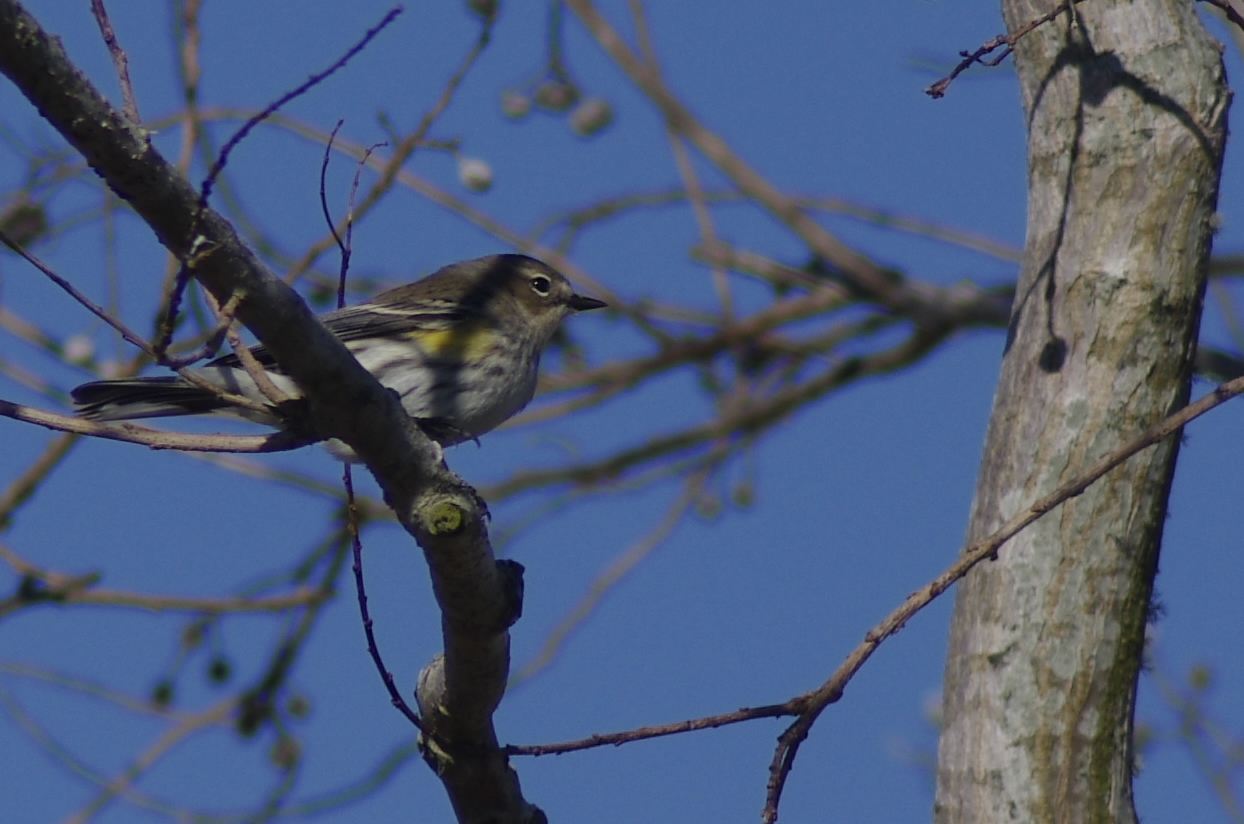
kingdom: Animalia
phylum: Chordata
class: Aves
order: Passeriformes
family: Parulidae
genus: Setophaga
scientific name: Setophaga coronata
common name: Myrtle warbler
